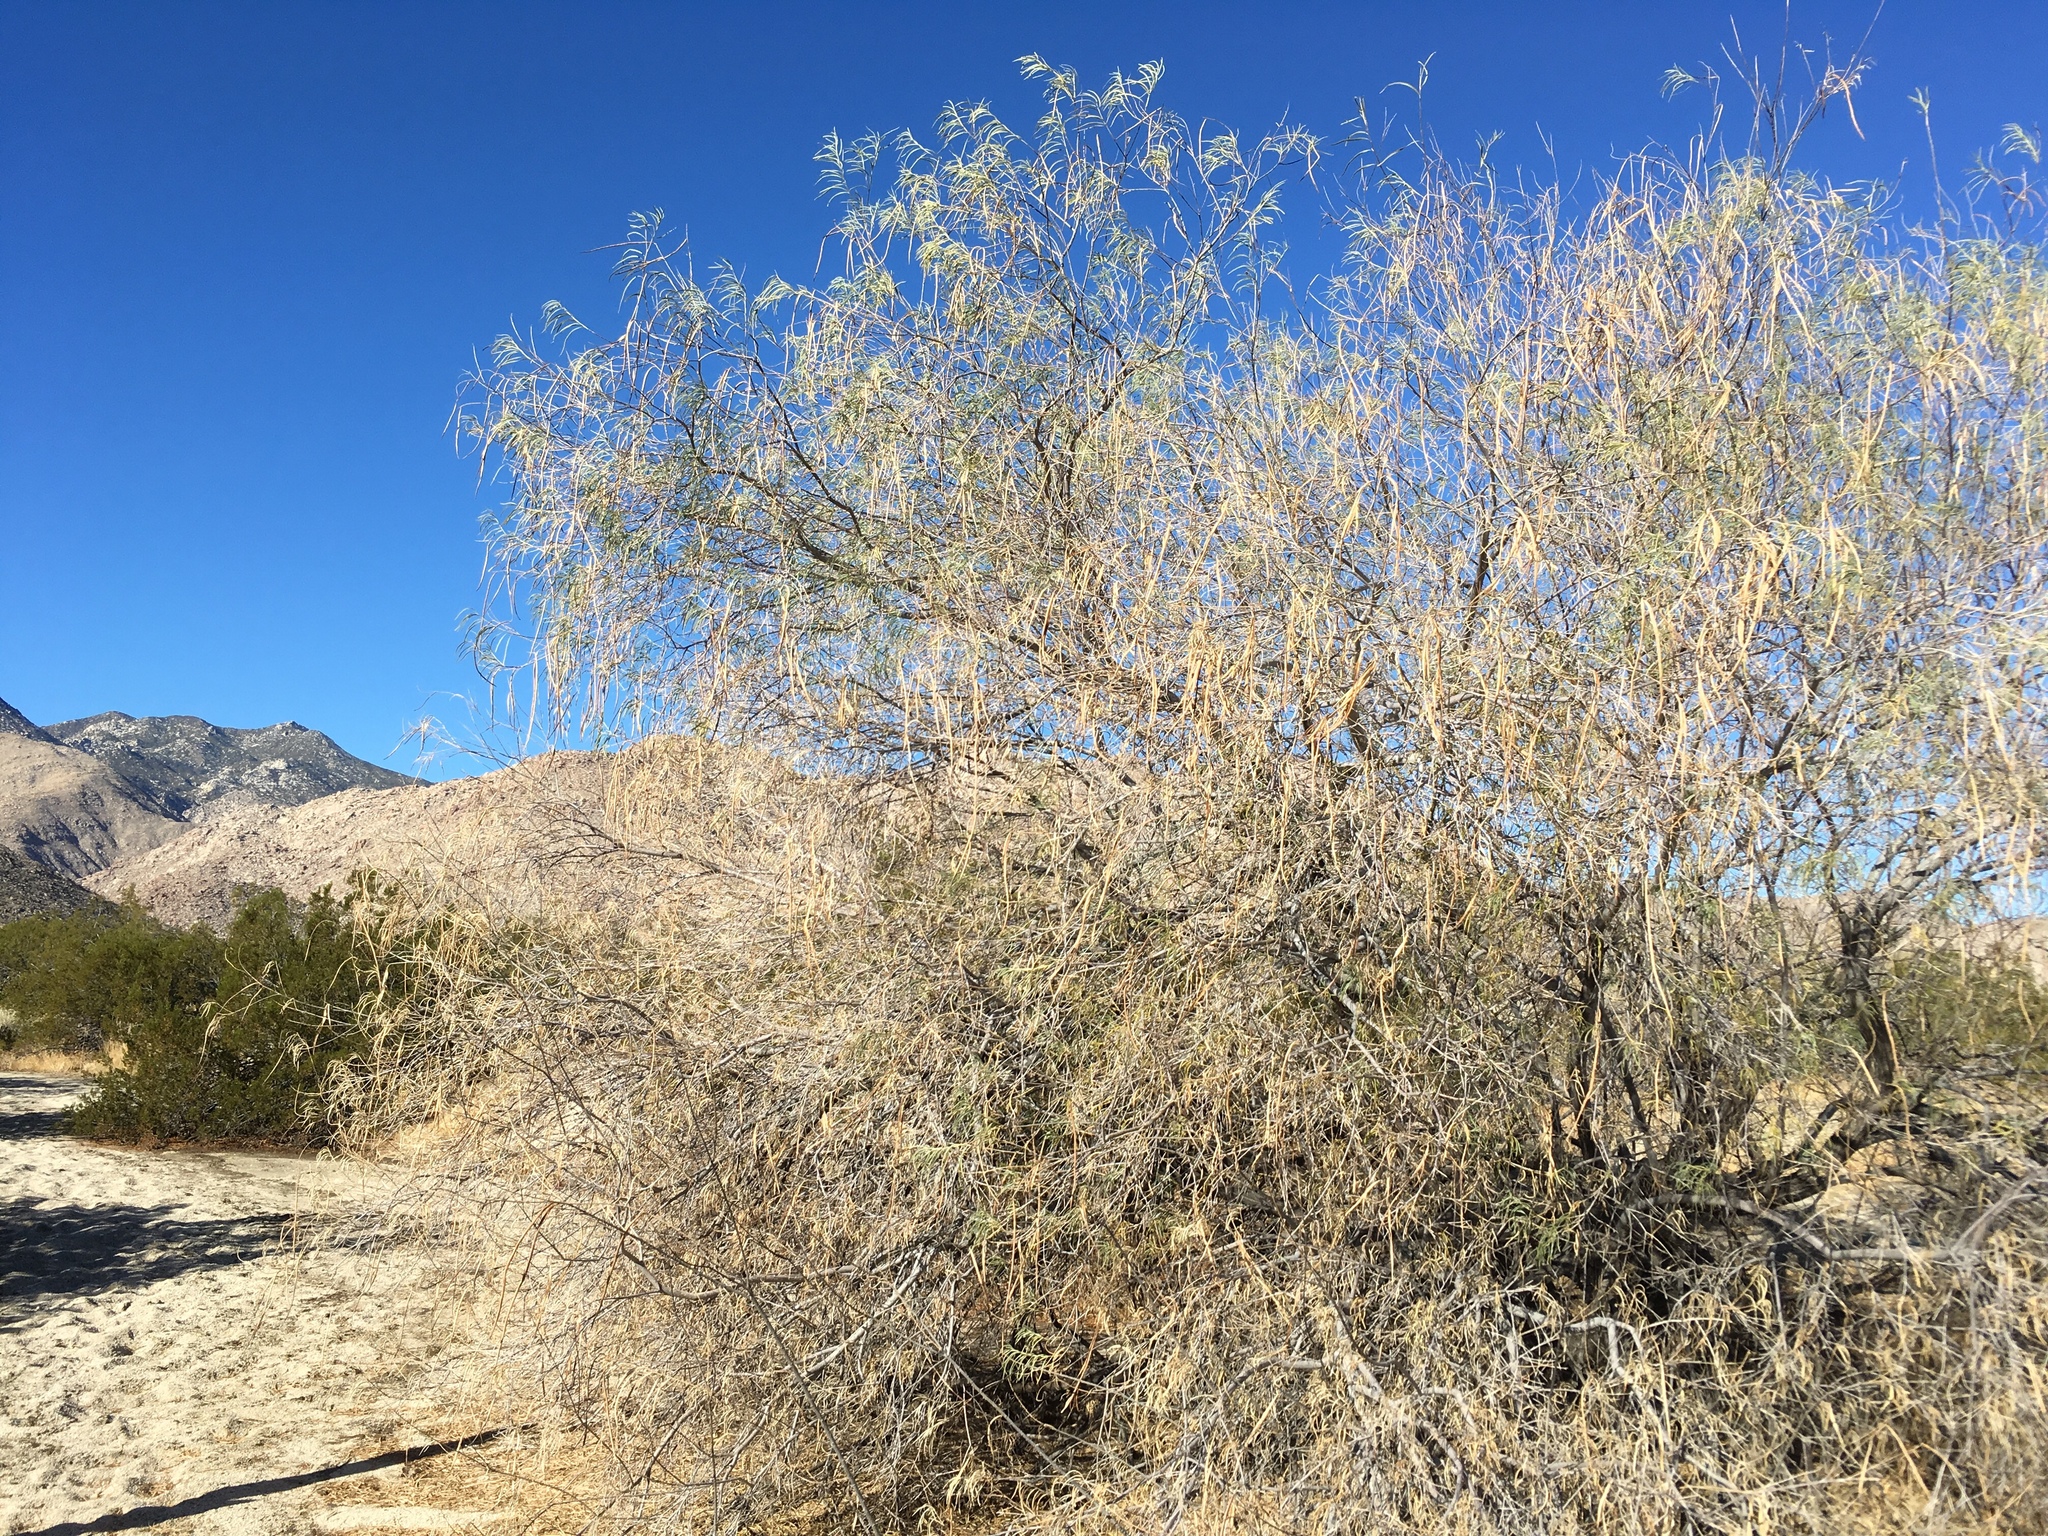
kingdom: Plantae
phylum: Tracheophyta
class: Magnoliopsida
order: Lamiales
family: Bignoniaceae
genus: Chilopsis
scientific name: Chilopsis linearis
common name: Desert-willow
